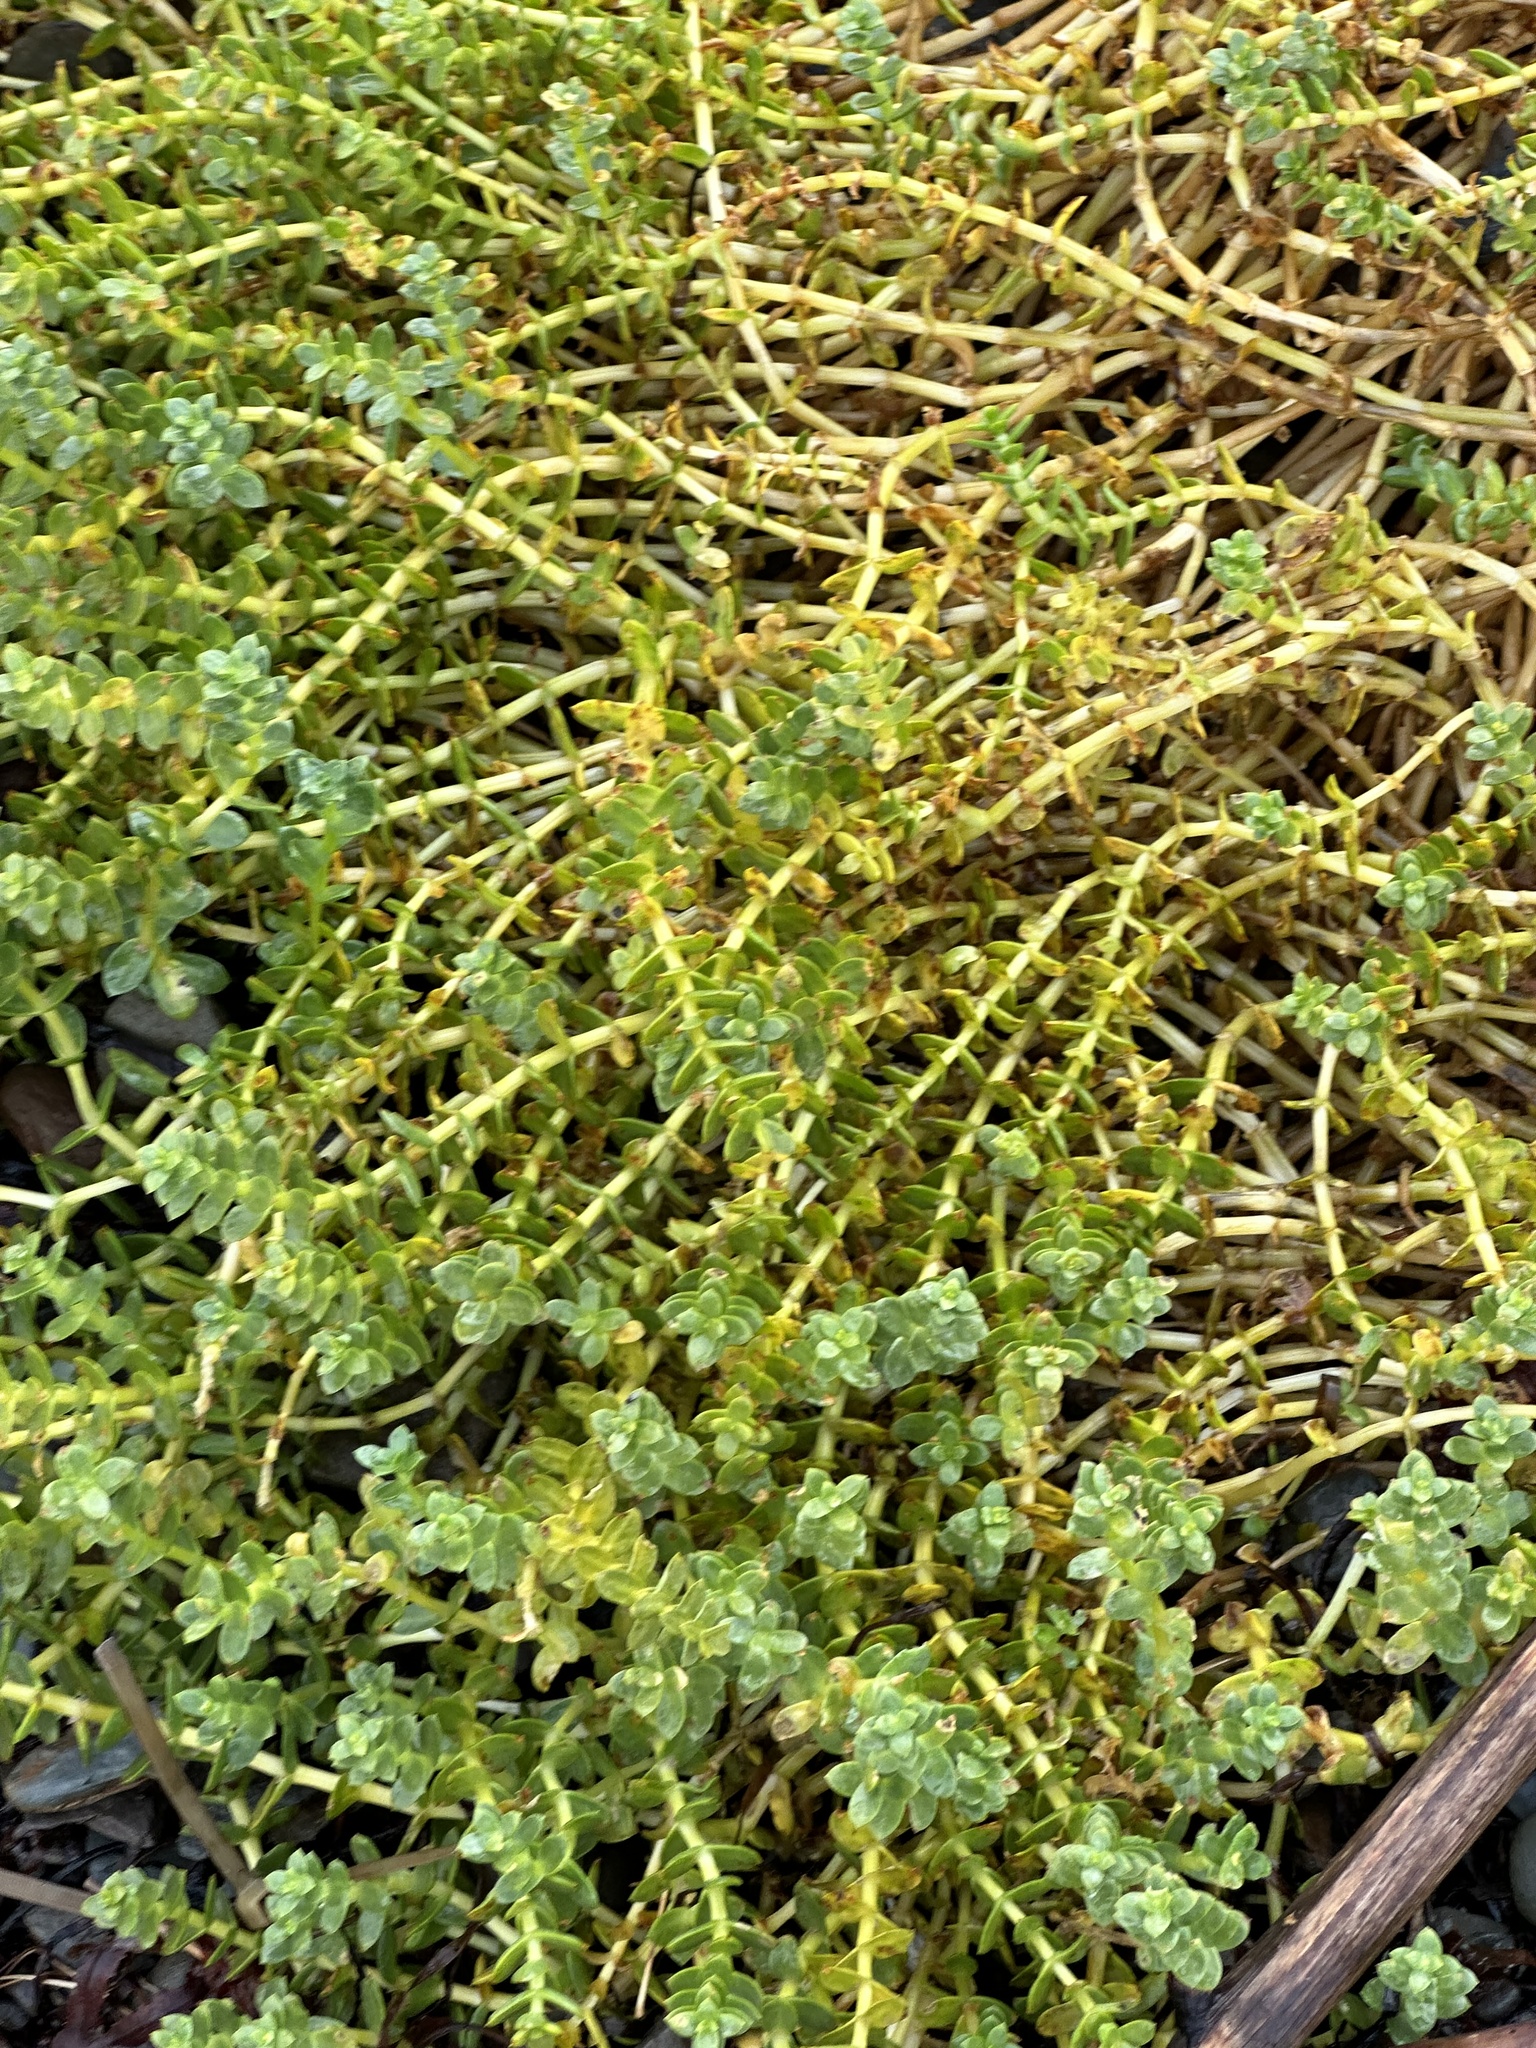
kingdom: Plantae
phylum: Tracheophyta
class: Magnoliopsida
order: Caryophyllales
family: Caryophyllaceae
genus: Honckenya
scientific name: Honckenya peploides
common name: Sea sandwort
